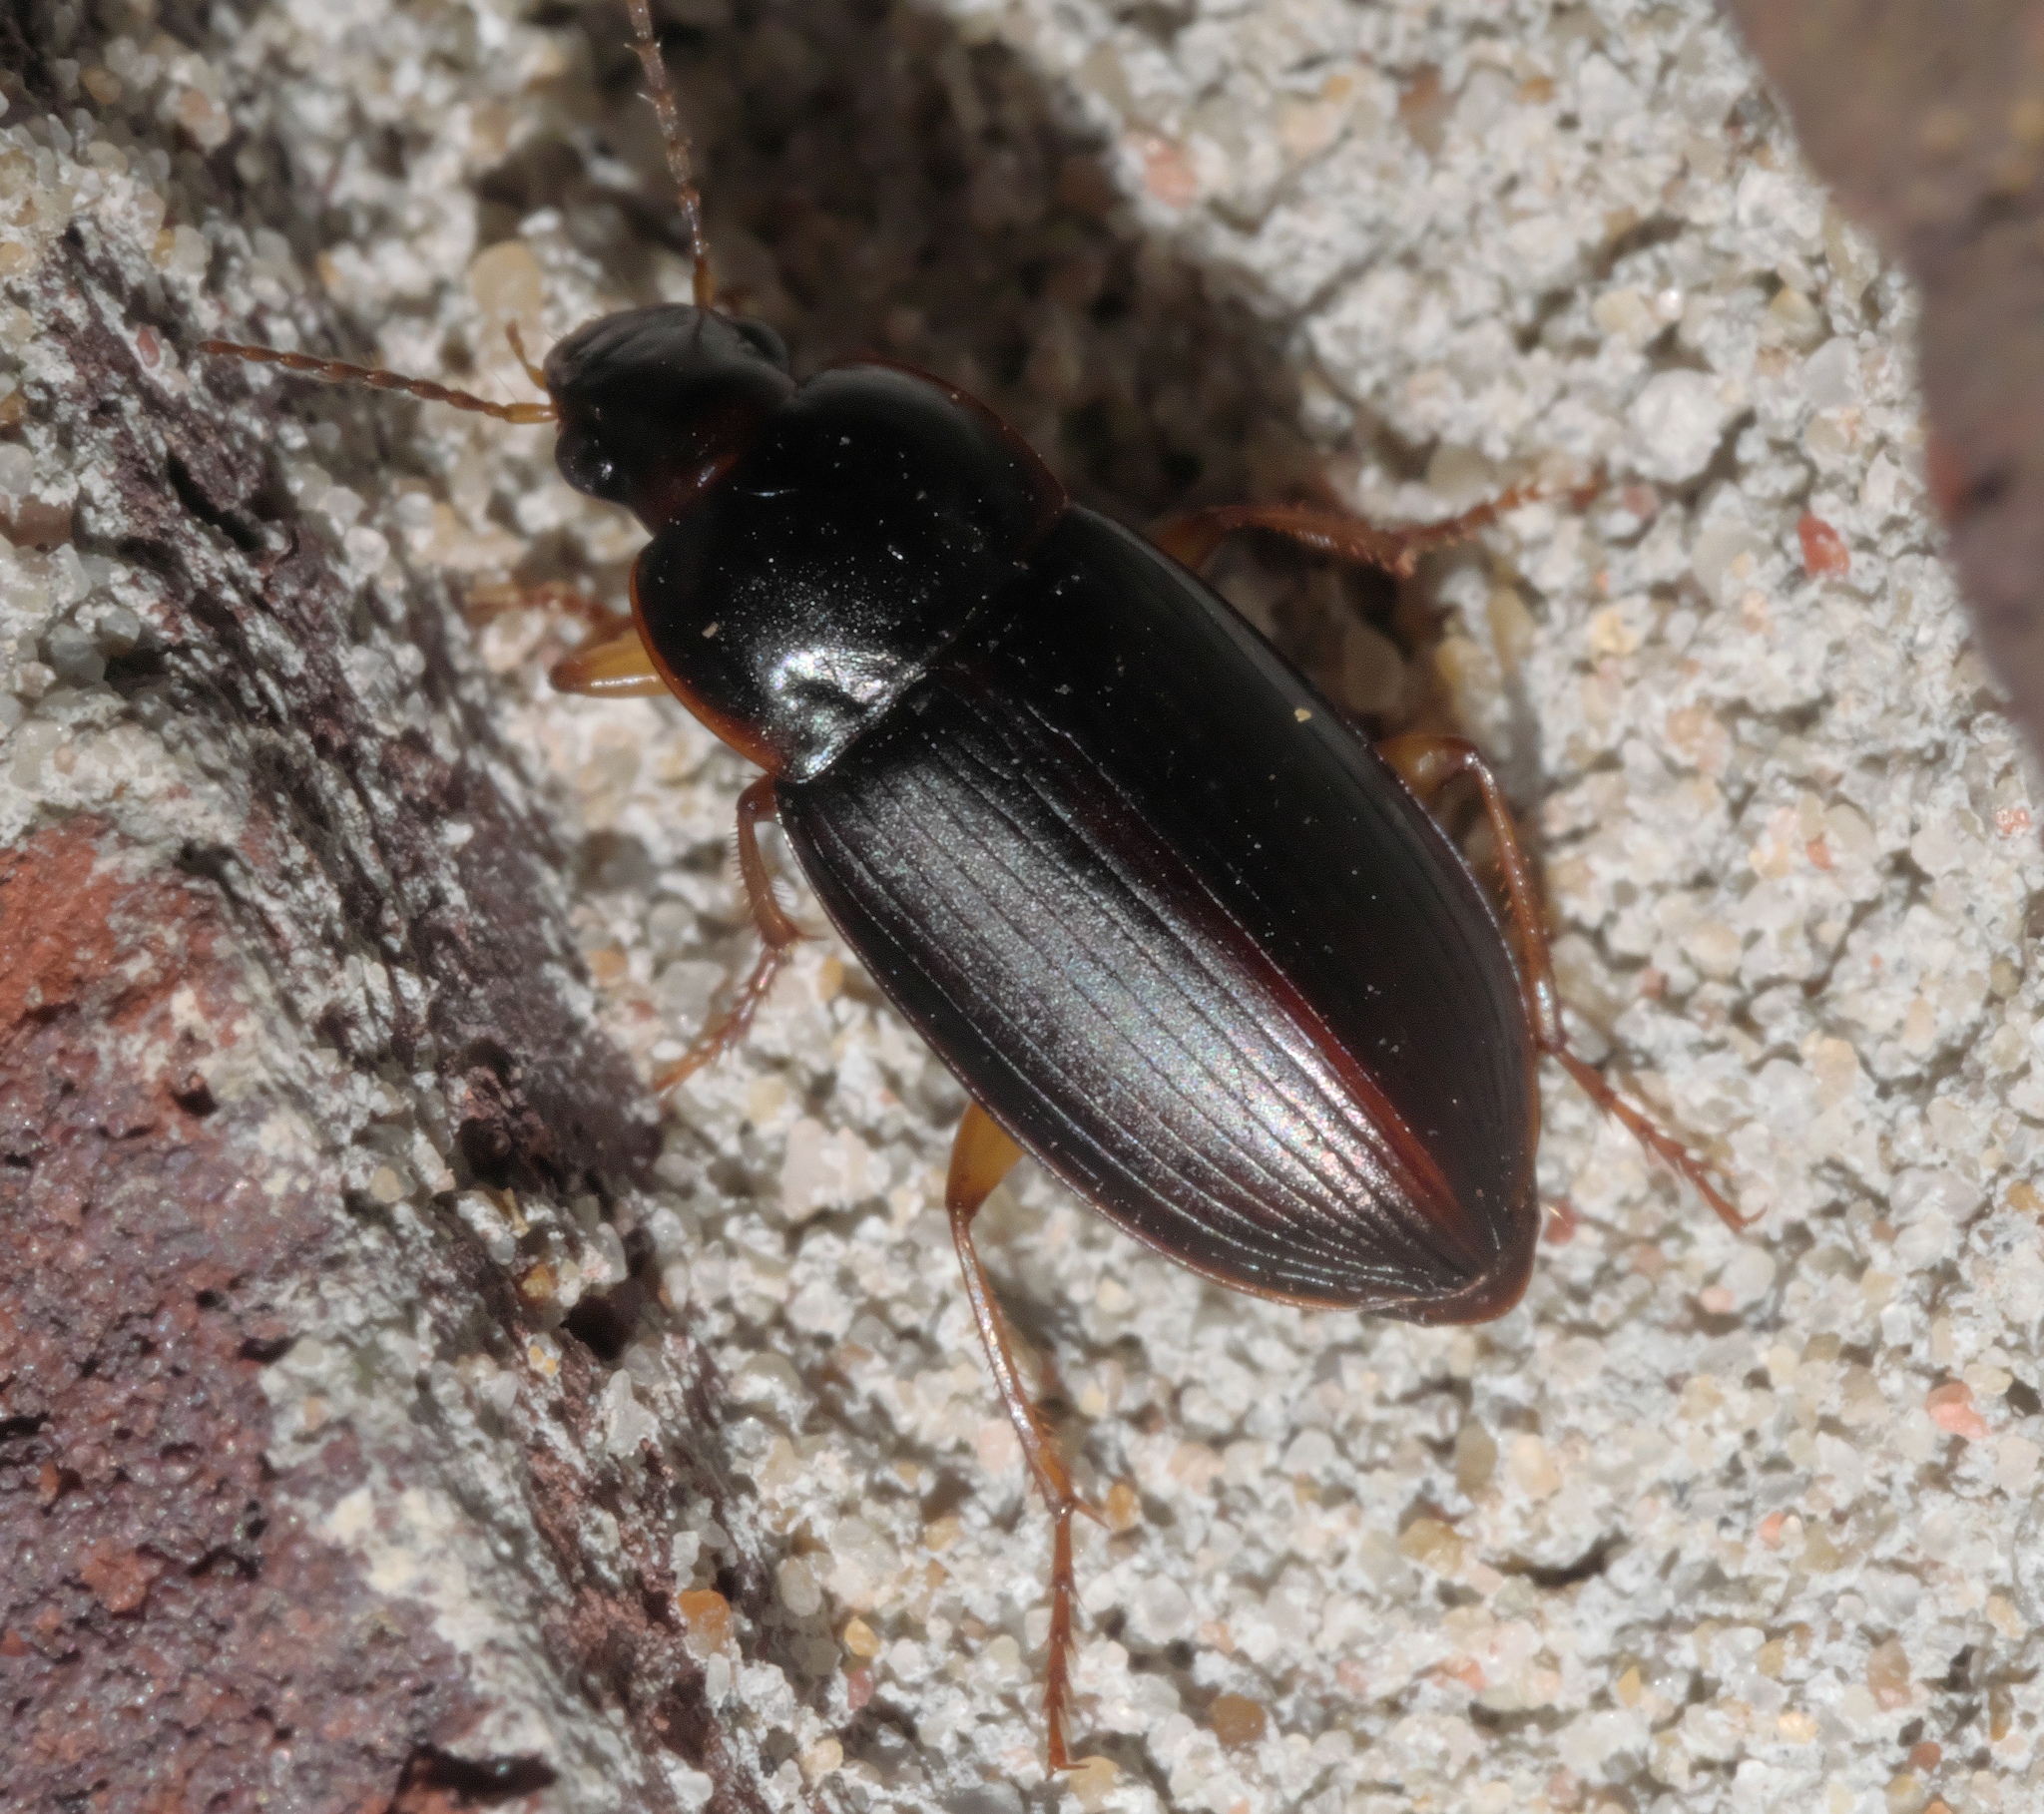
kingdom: Animalia
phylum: Arthropoda
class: Insecta
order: Coleoptera
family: Carabidae
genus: Notiobia
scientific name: Notiobia terminata
